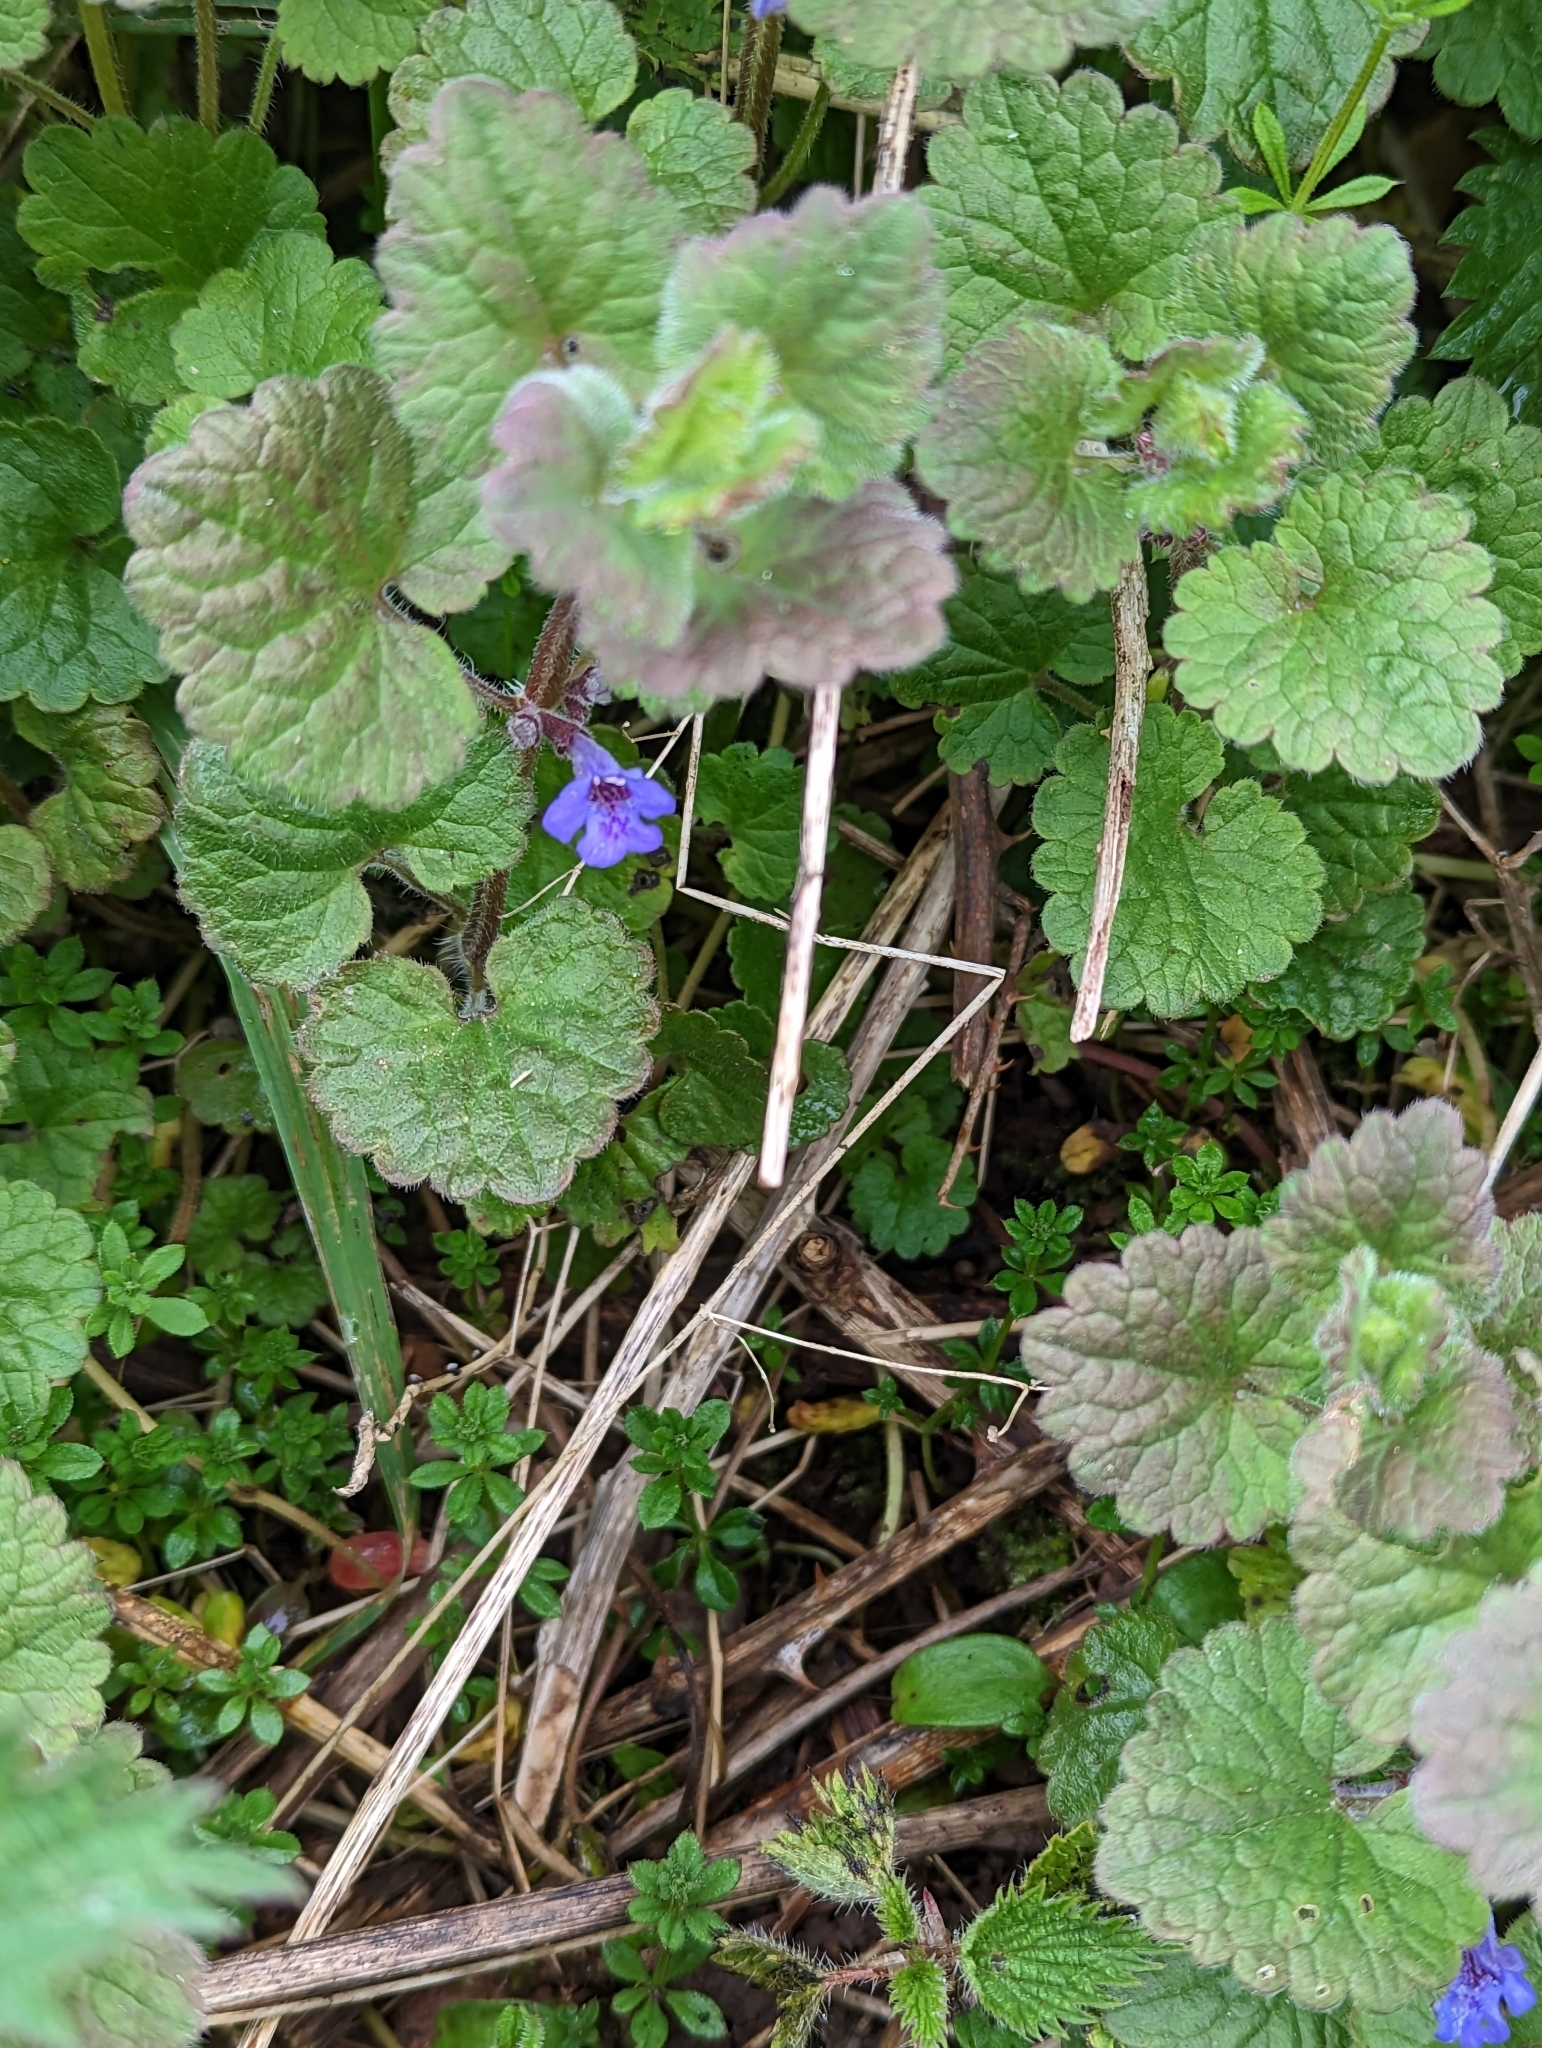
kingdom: Plantae
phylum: Tracheophyta
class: Magnoliopsida
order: Lamiales
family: Lamiaceae
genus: Glechoma
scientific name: Glechoma hederacea
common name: Ground ivy
